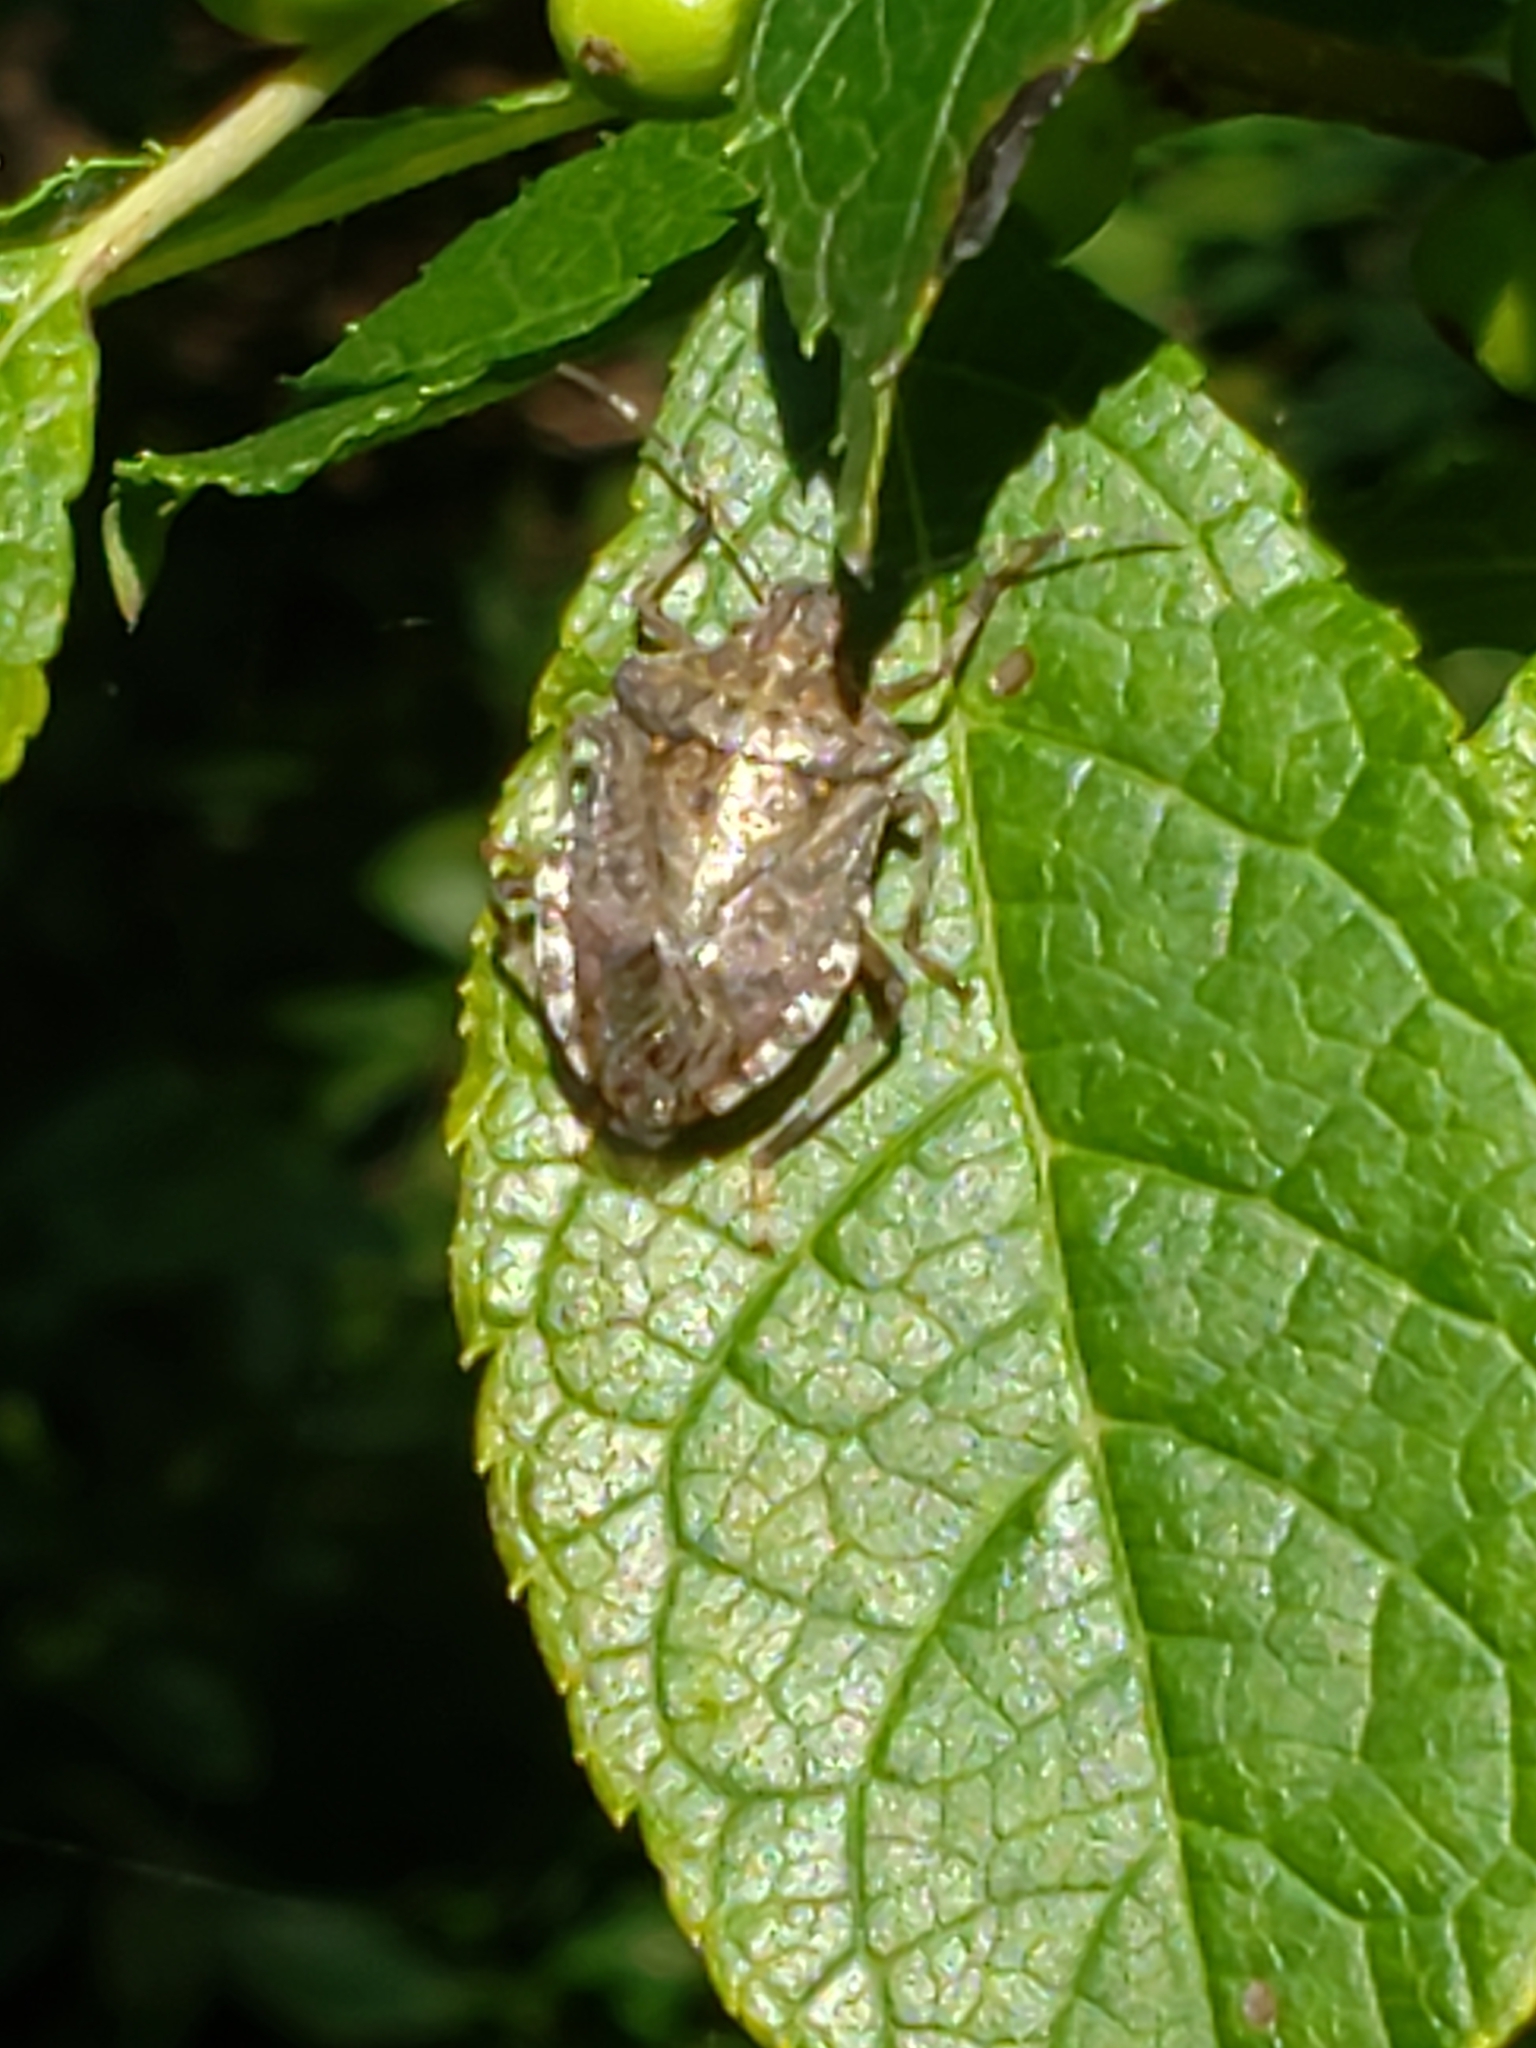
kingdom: Animalia
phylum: Arthropoda
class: Insecta
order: Hemiptera
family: Pentatomidae
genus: Halyomorpha
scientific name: Halyomorpha halys
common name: Brown marmorated stink bug
